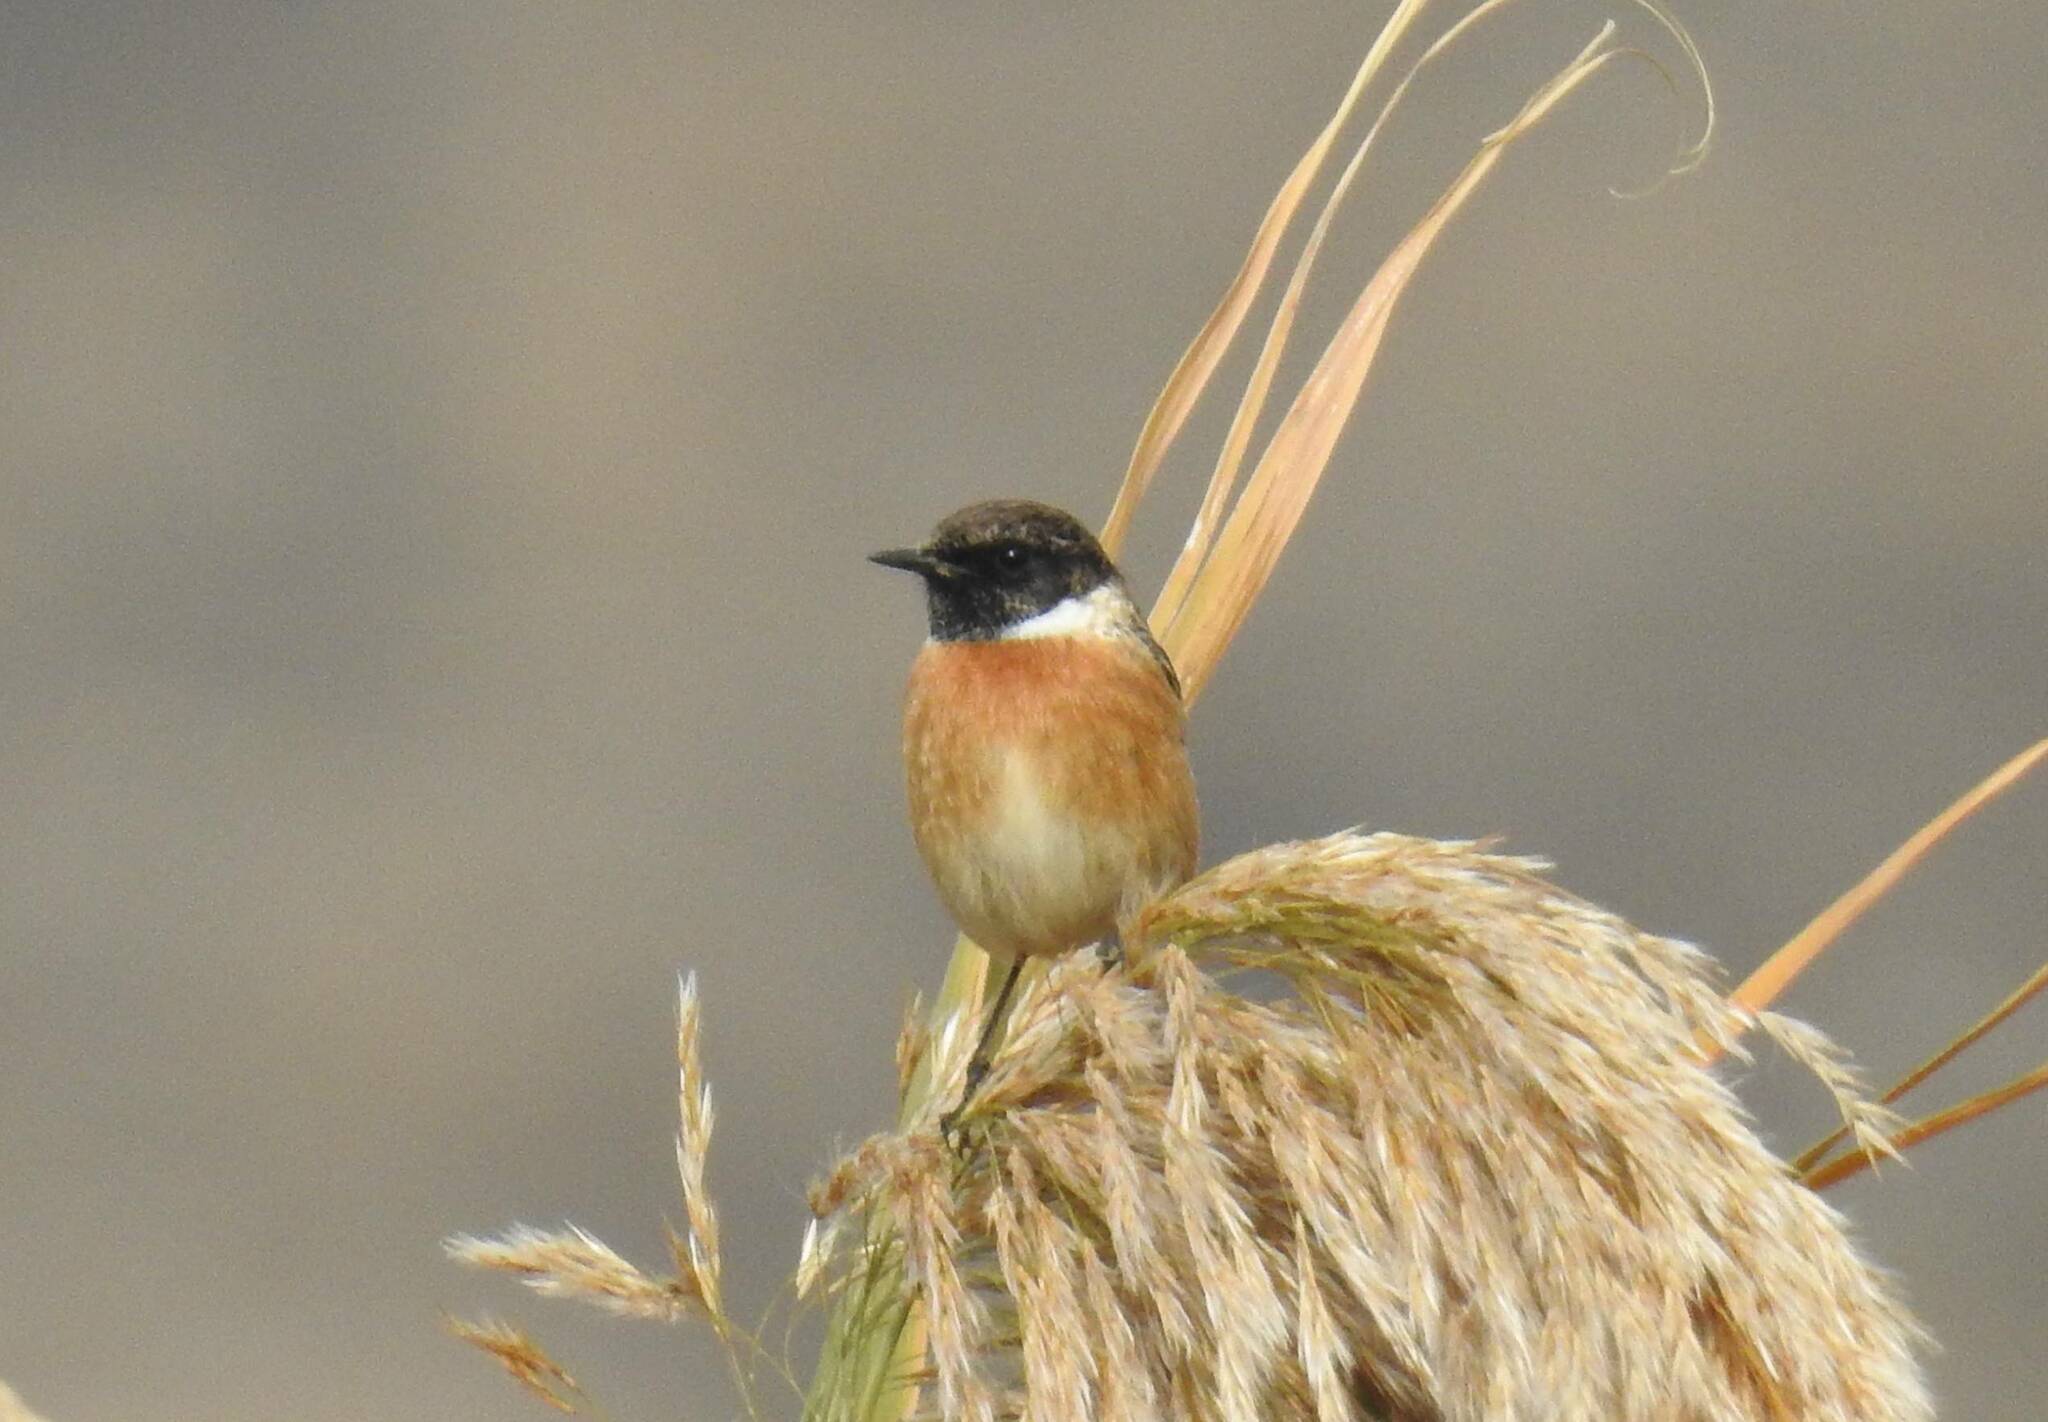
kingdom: Animalia
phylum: Chordata
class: Aves
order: Passeriformes
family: Muscicapidae
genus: Saxicola
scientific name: Saxicola rubicola
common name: European stonechat
